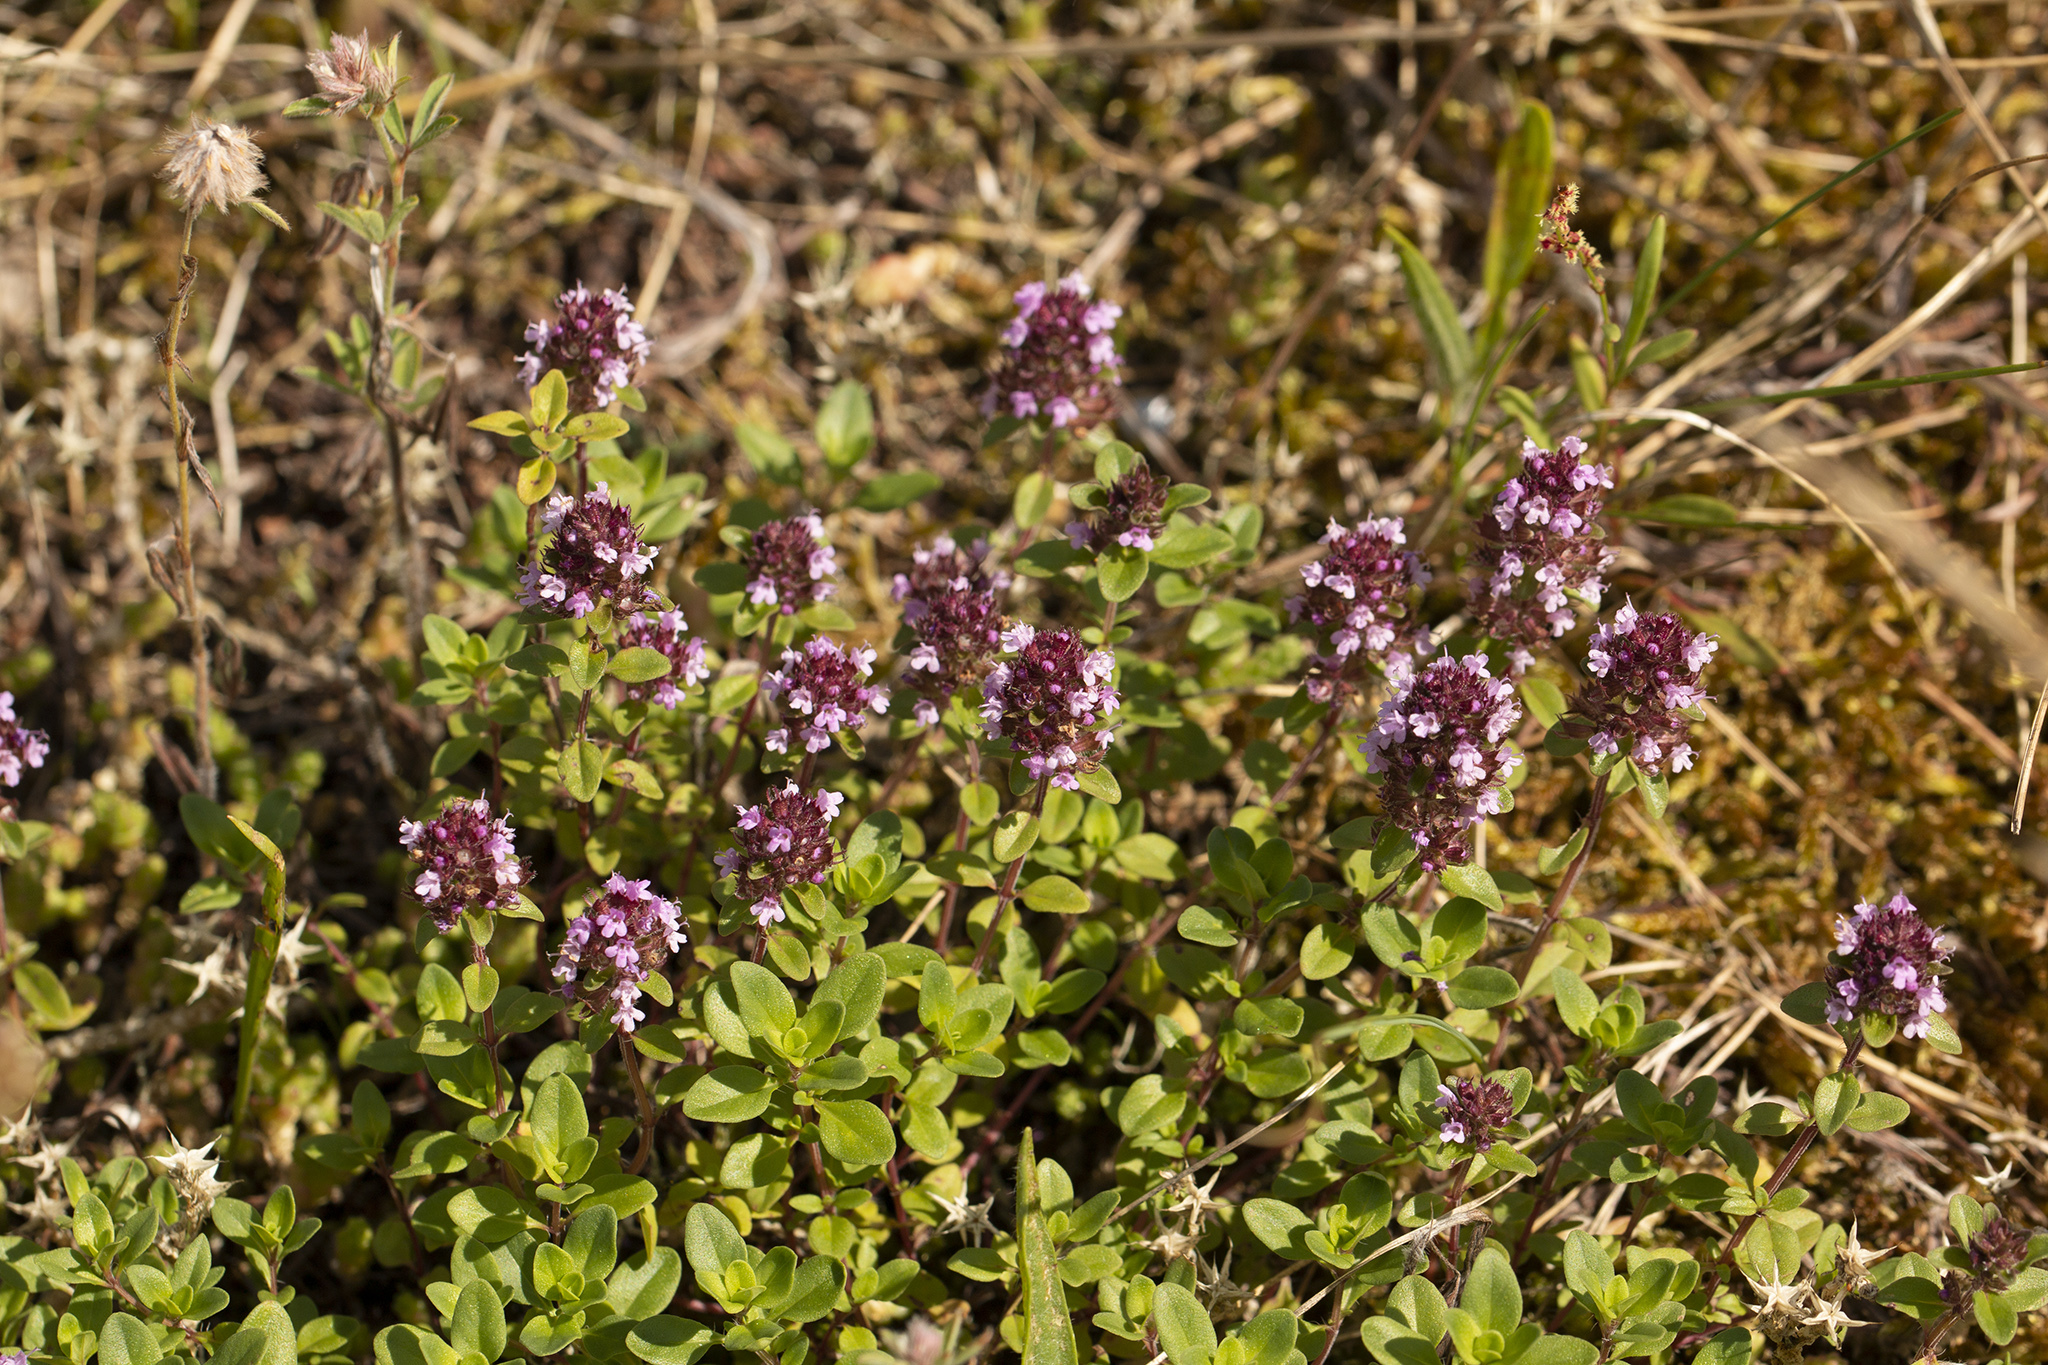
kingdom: Plantae
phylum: Tracheophyta
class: Magnoliopsida
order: Lamiales
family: Lamiaceae
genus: Thymus
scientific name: Thymus pulegioides
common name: Large thyme
